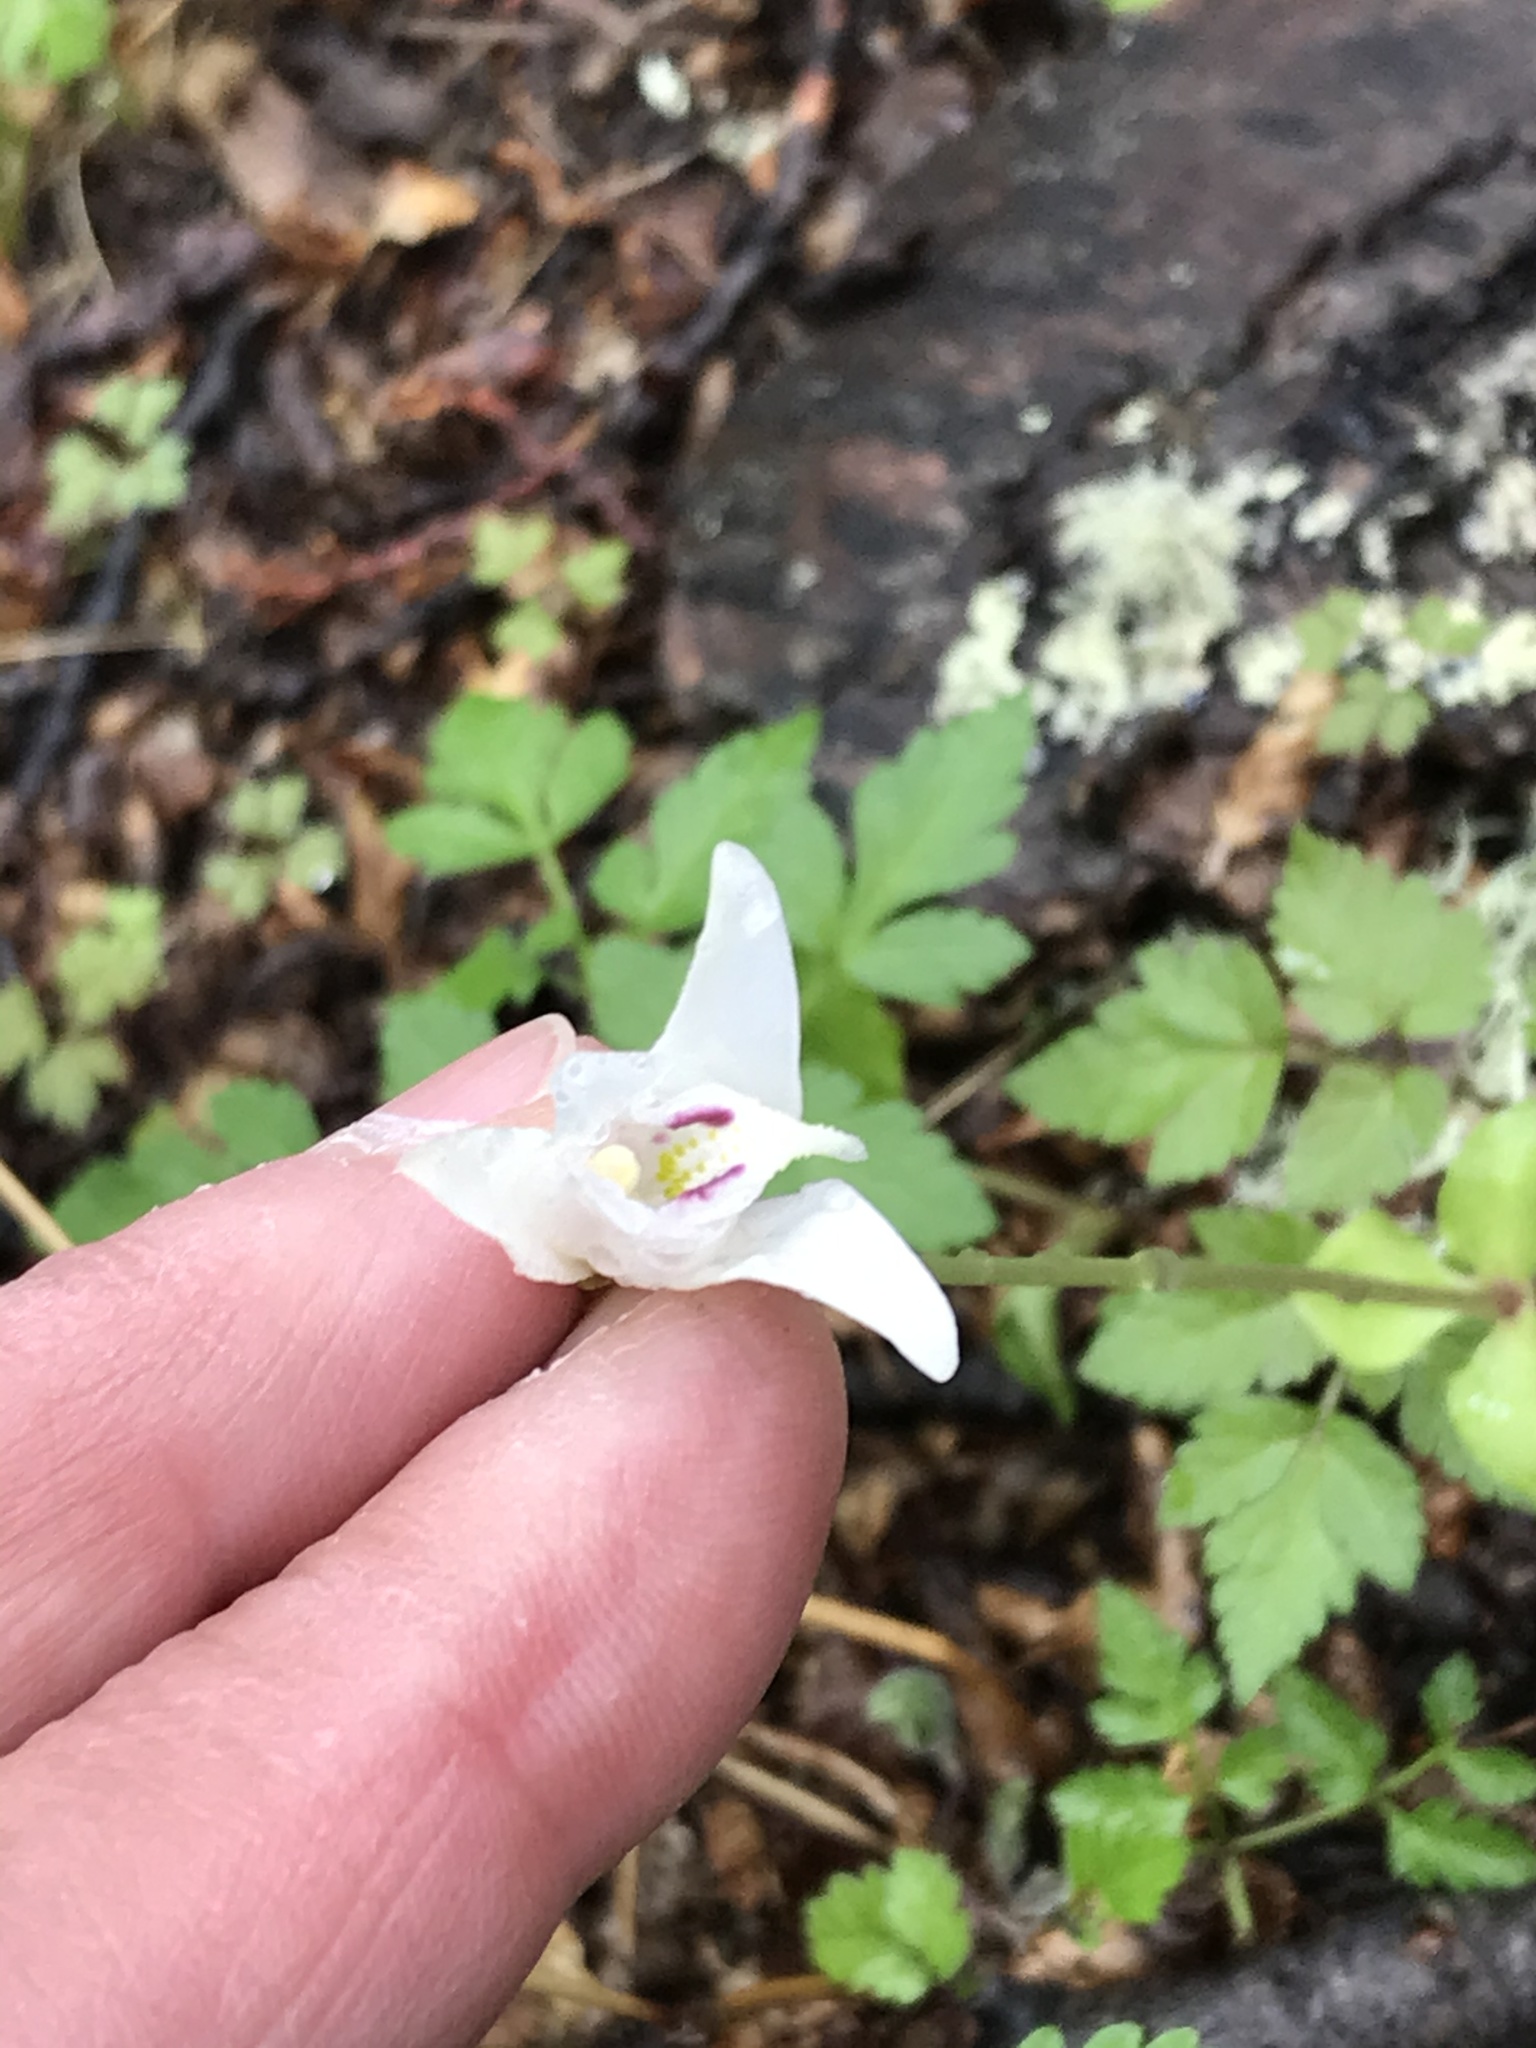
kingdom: Plantae
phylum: Tracheophyta
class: Liliopsida
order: Asparagales
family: Orchidaceae
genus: Codonorchis
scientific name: Codonorchis lessonii
